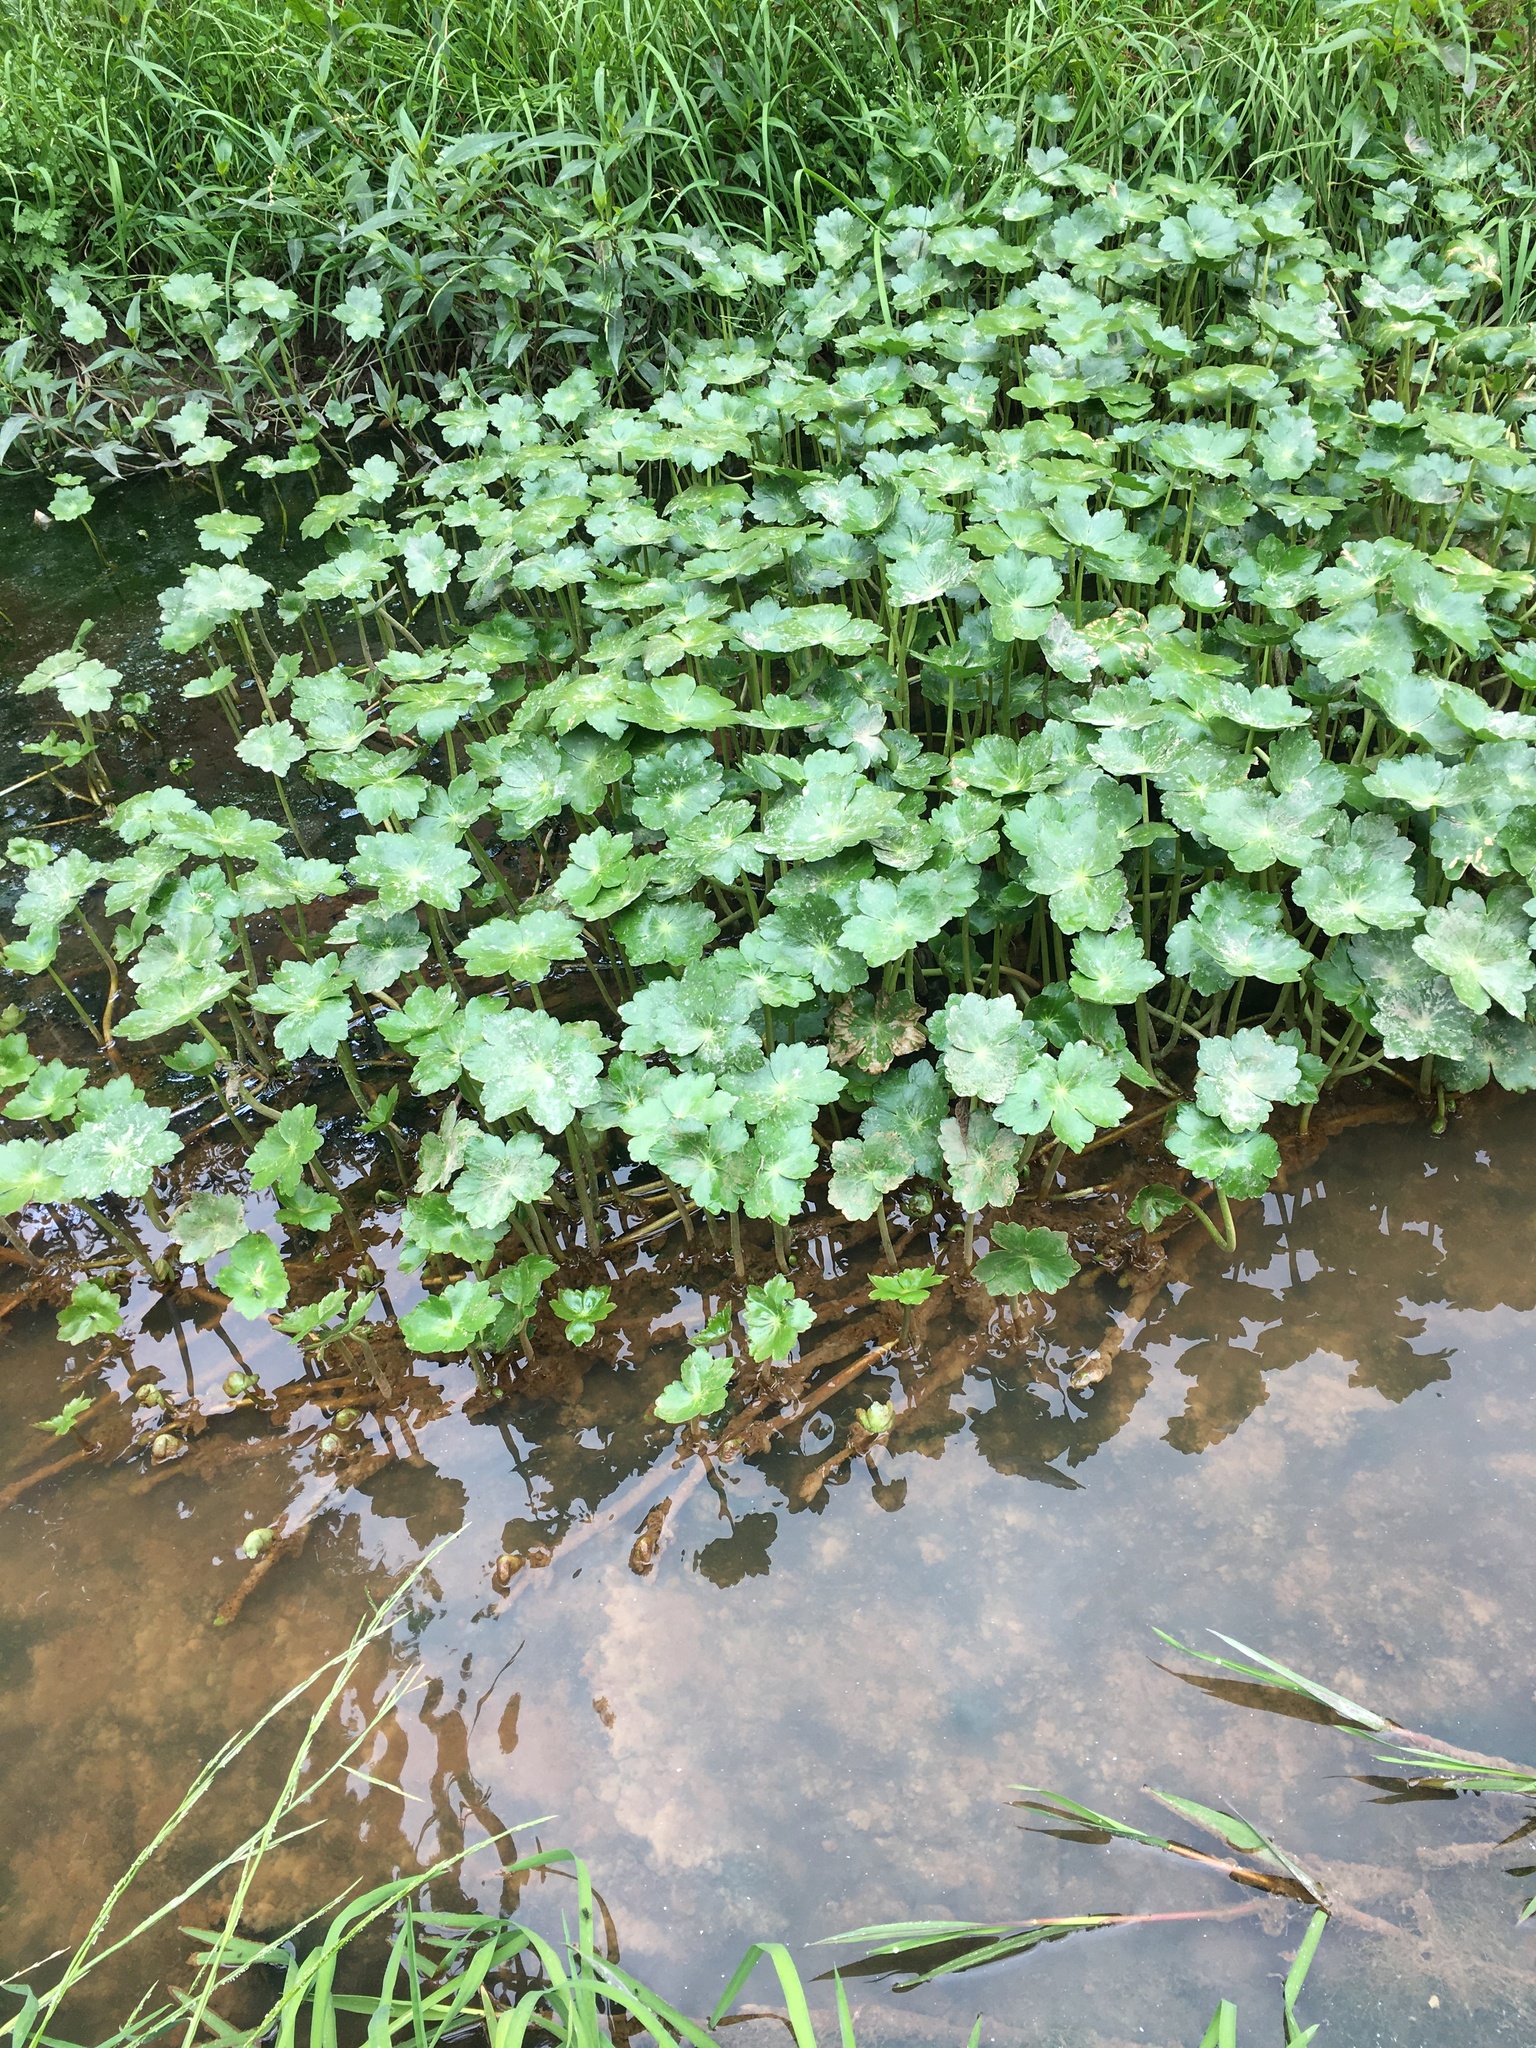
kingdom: Plantae
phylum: Tracheophyta
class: Magnoliopsida
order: Apiales
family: Araliaceae
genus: Hydrocotyle
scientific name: Hydrocotyle ranunculoides
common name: Floating pennywort
